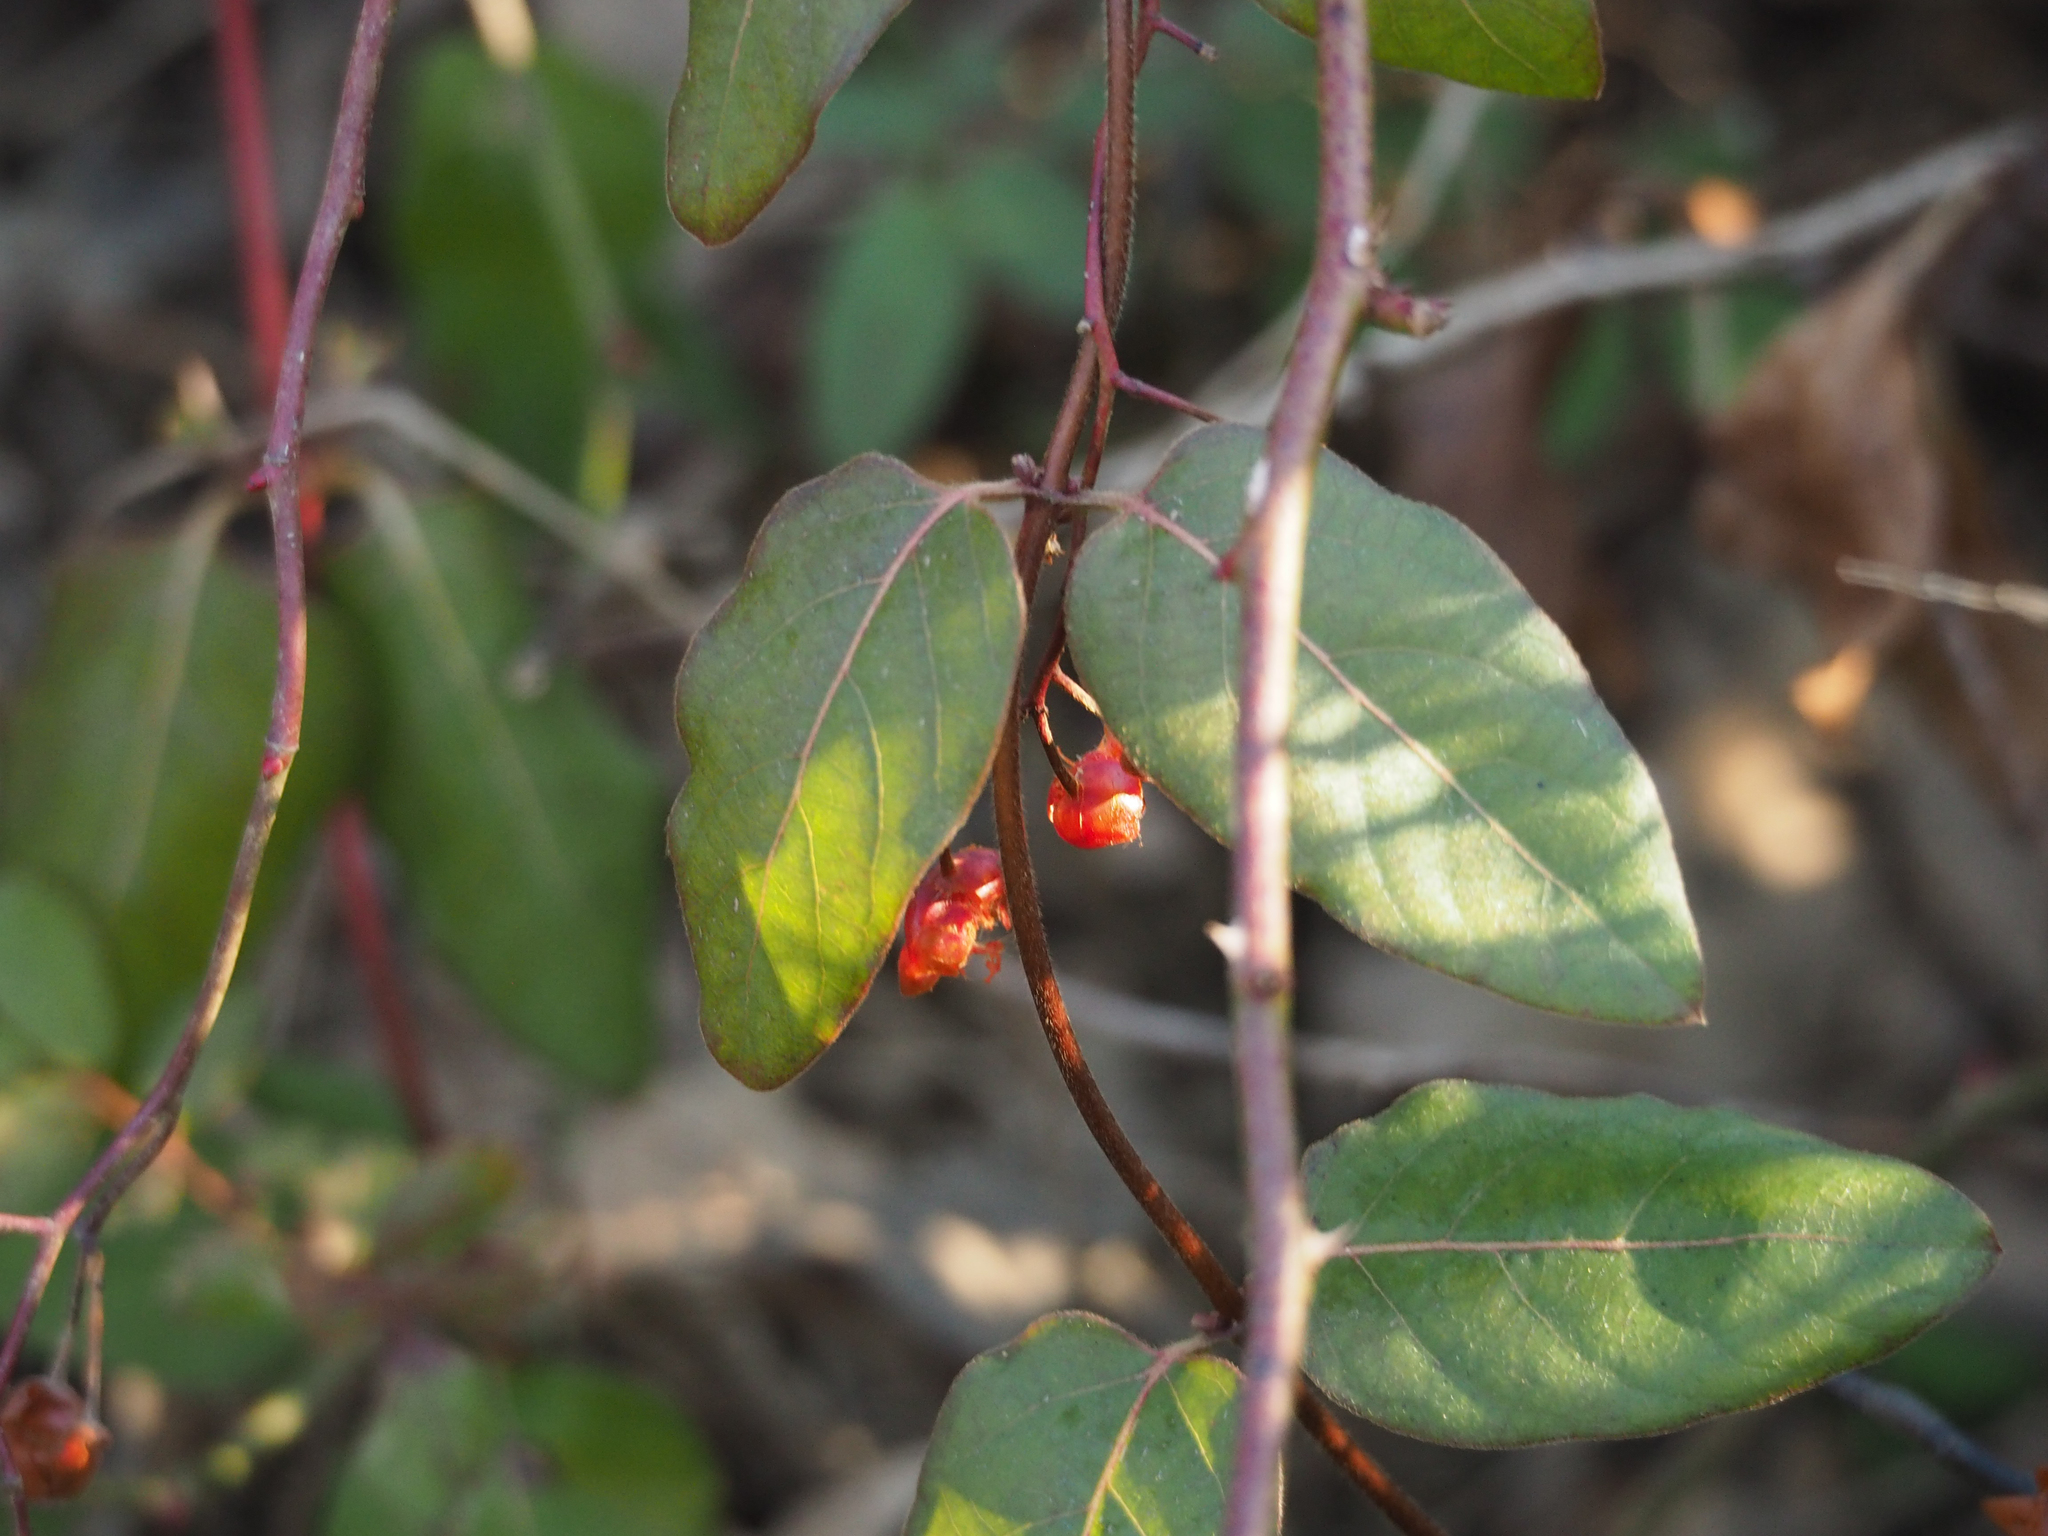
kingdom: Plantae
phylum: Tracheophyta
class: Magnoliopsida
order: Dipsacales
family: Caprifoliaceae
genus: Lonicera
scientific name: Lonicera japonica
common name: Japanese honeysuckle
